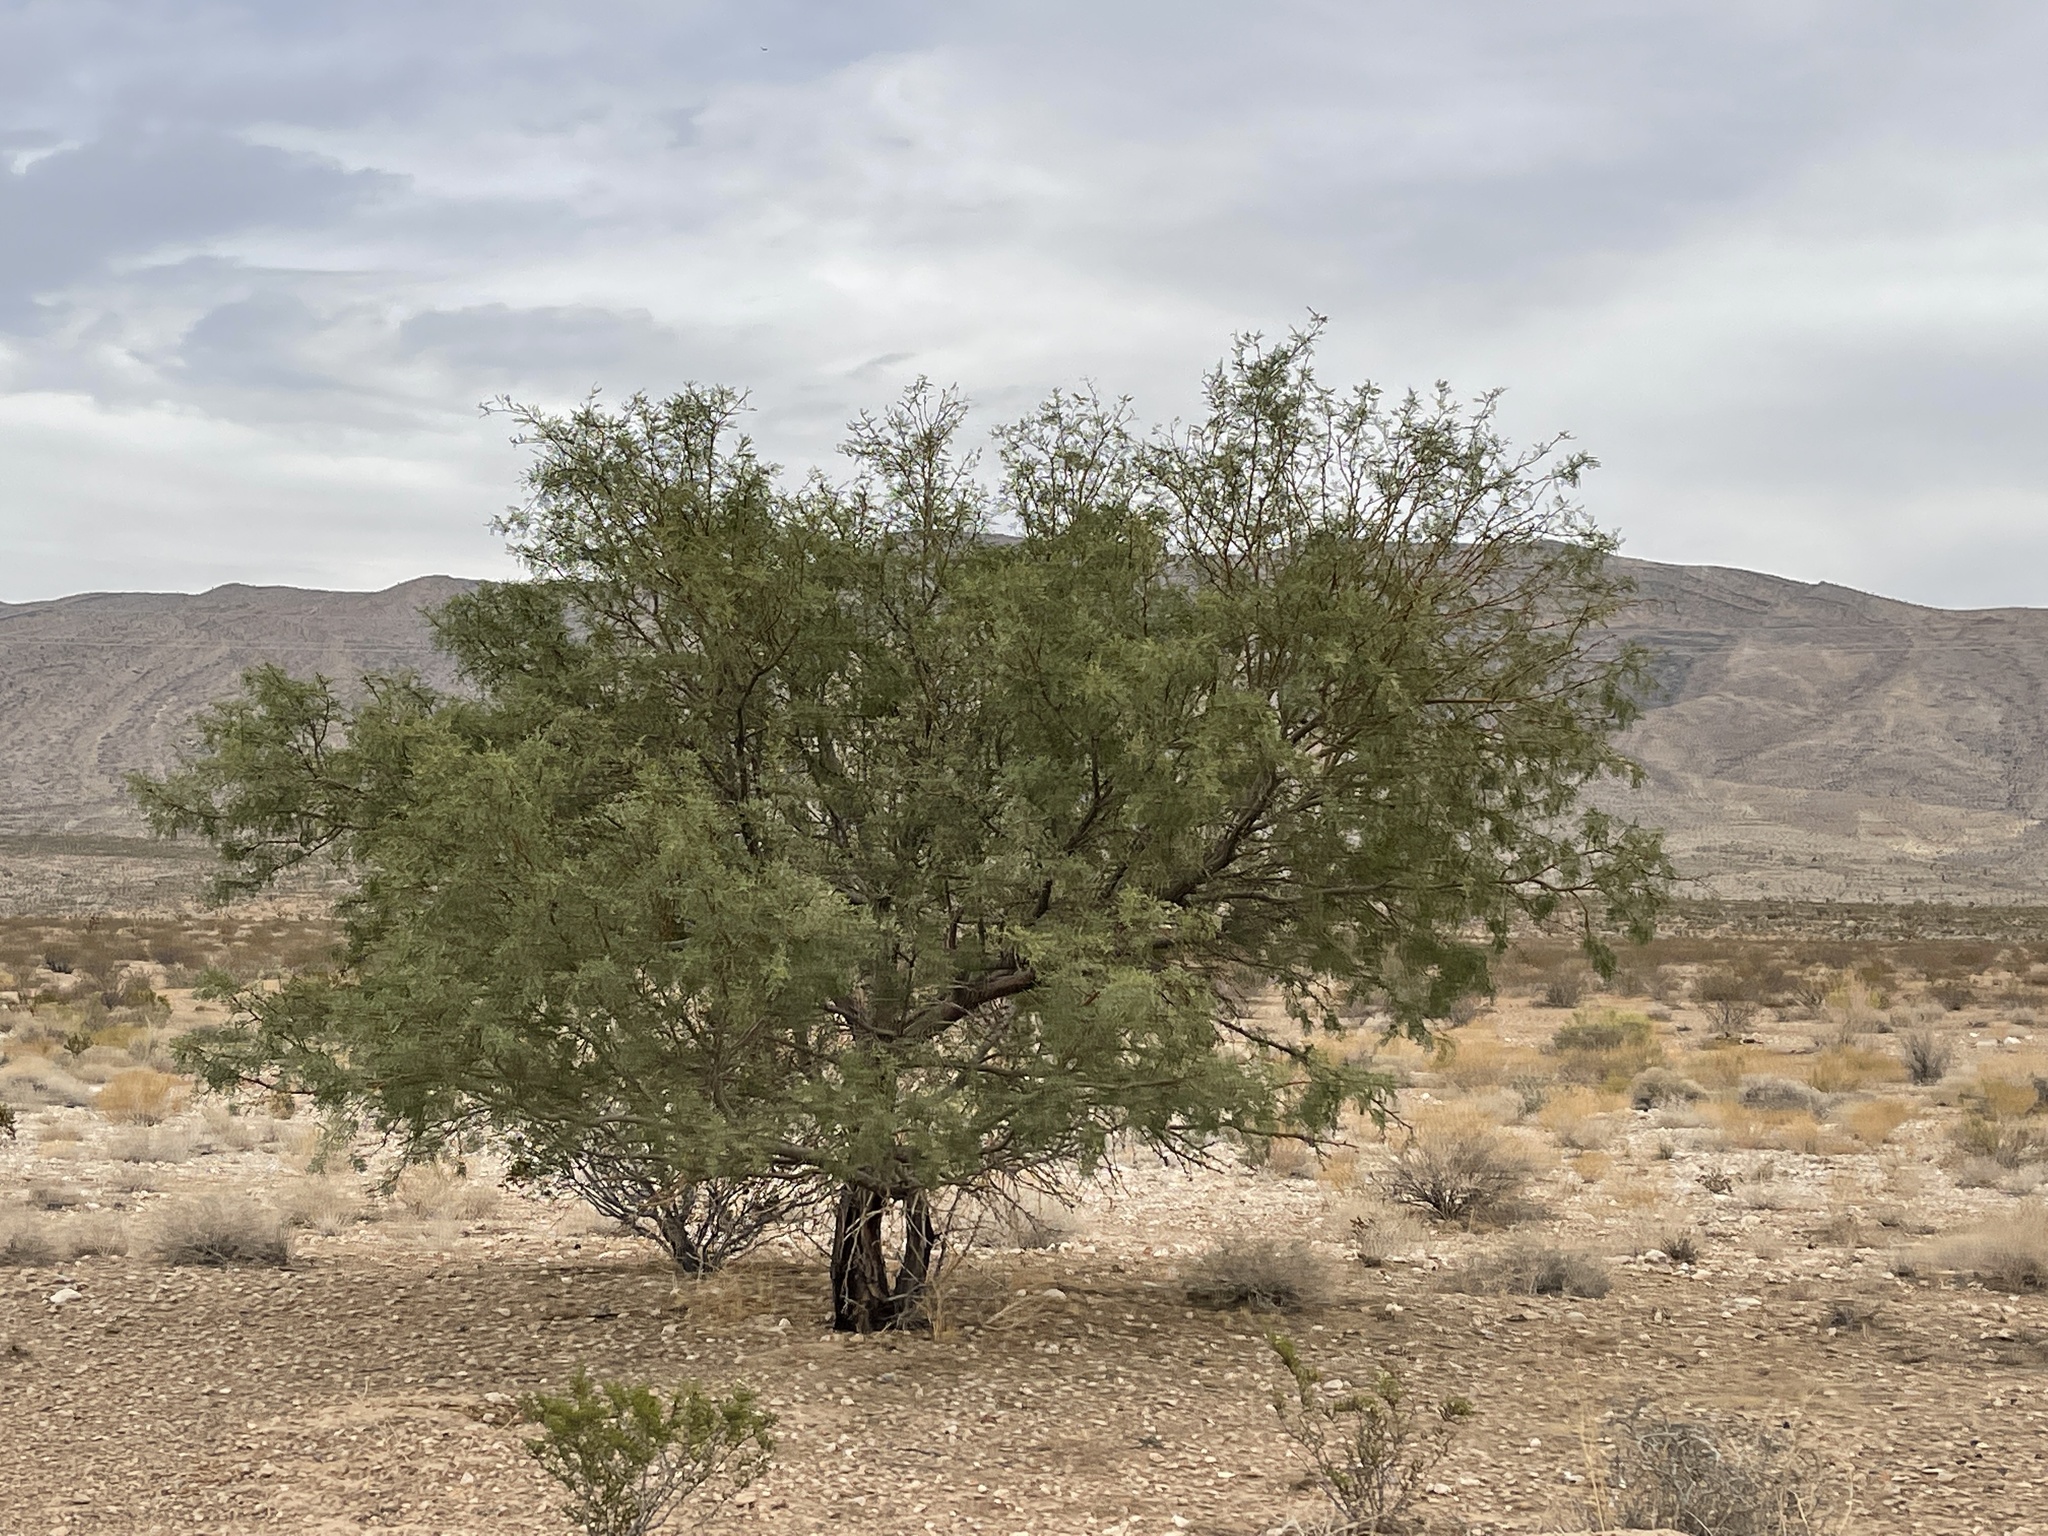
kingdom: Plantae
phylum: Tracheophyta
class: Magnoliopsida
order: Fabales
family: Fabaceae
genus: Prosopis
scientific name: Prosopis pubescens
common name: Screw-bean
